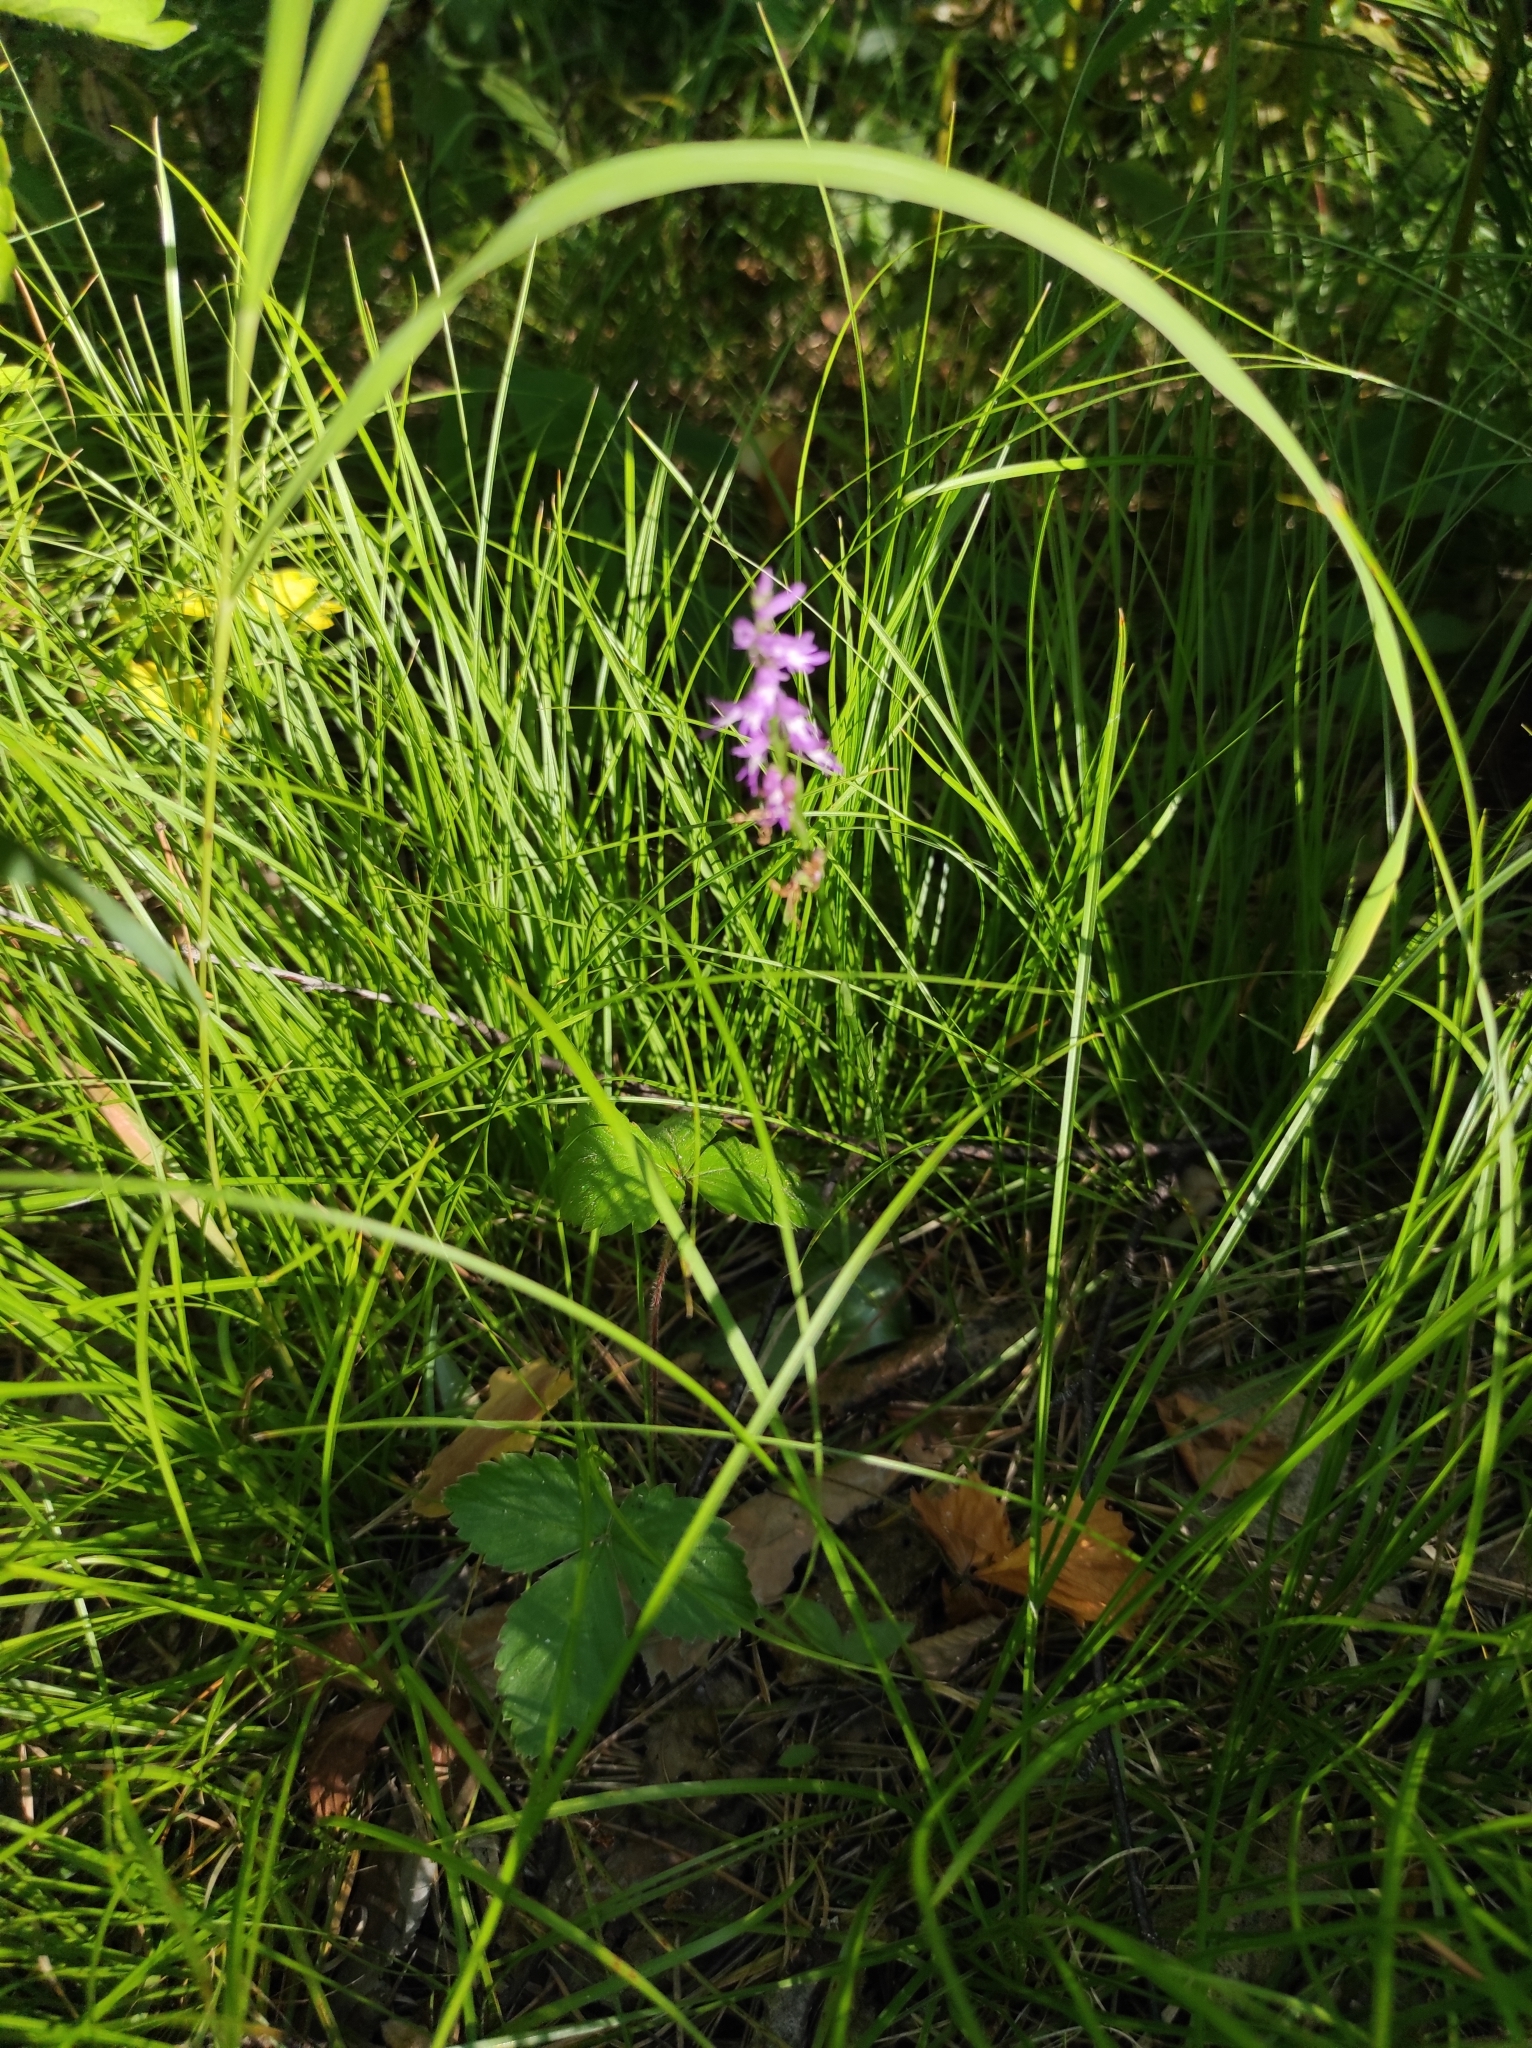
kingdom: Plantae
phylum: Tracheophyta
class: Liliopsida
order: Asparagales
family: Orchidaceae
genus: Hemipilia
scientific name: Hemipilia cucullata
